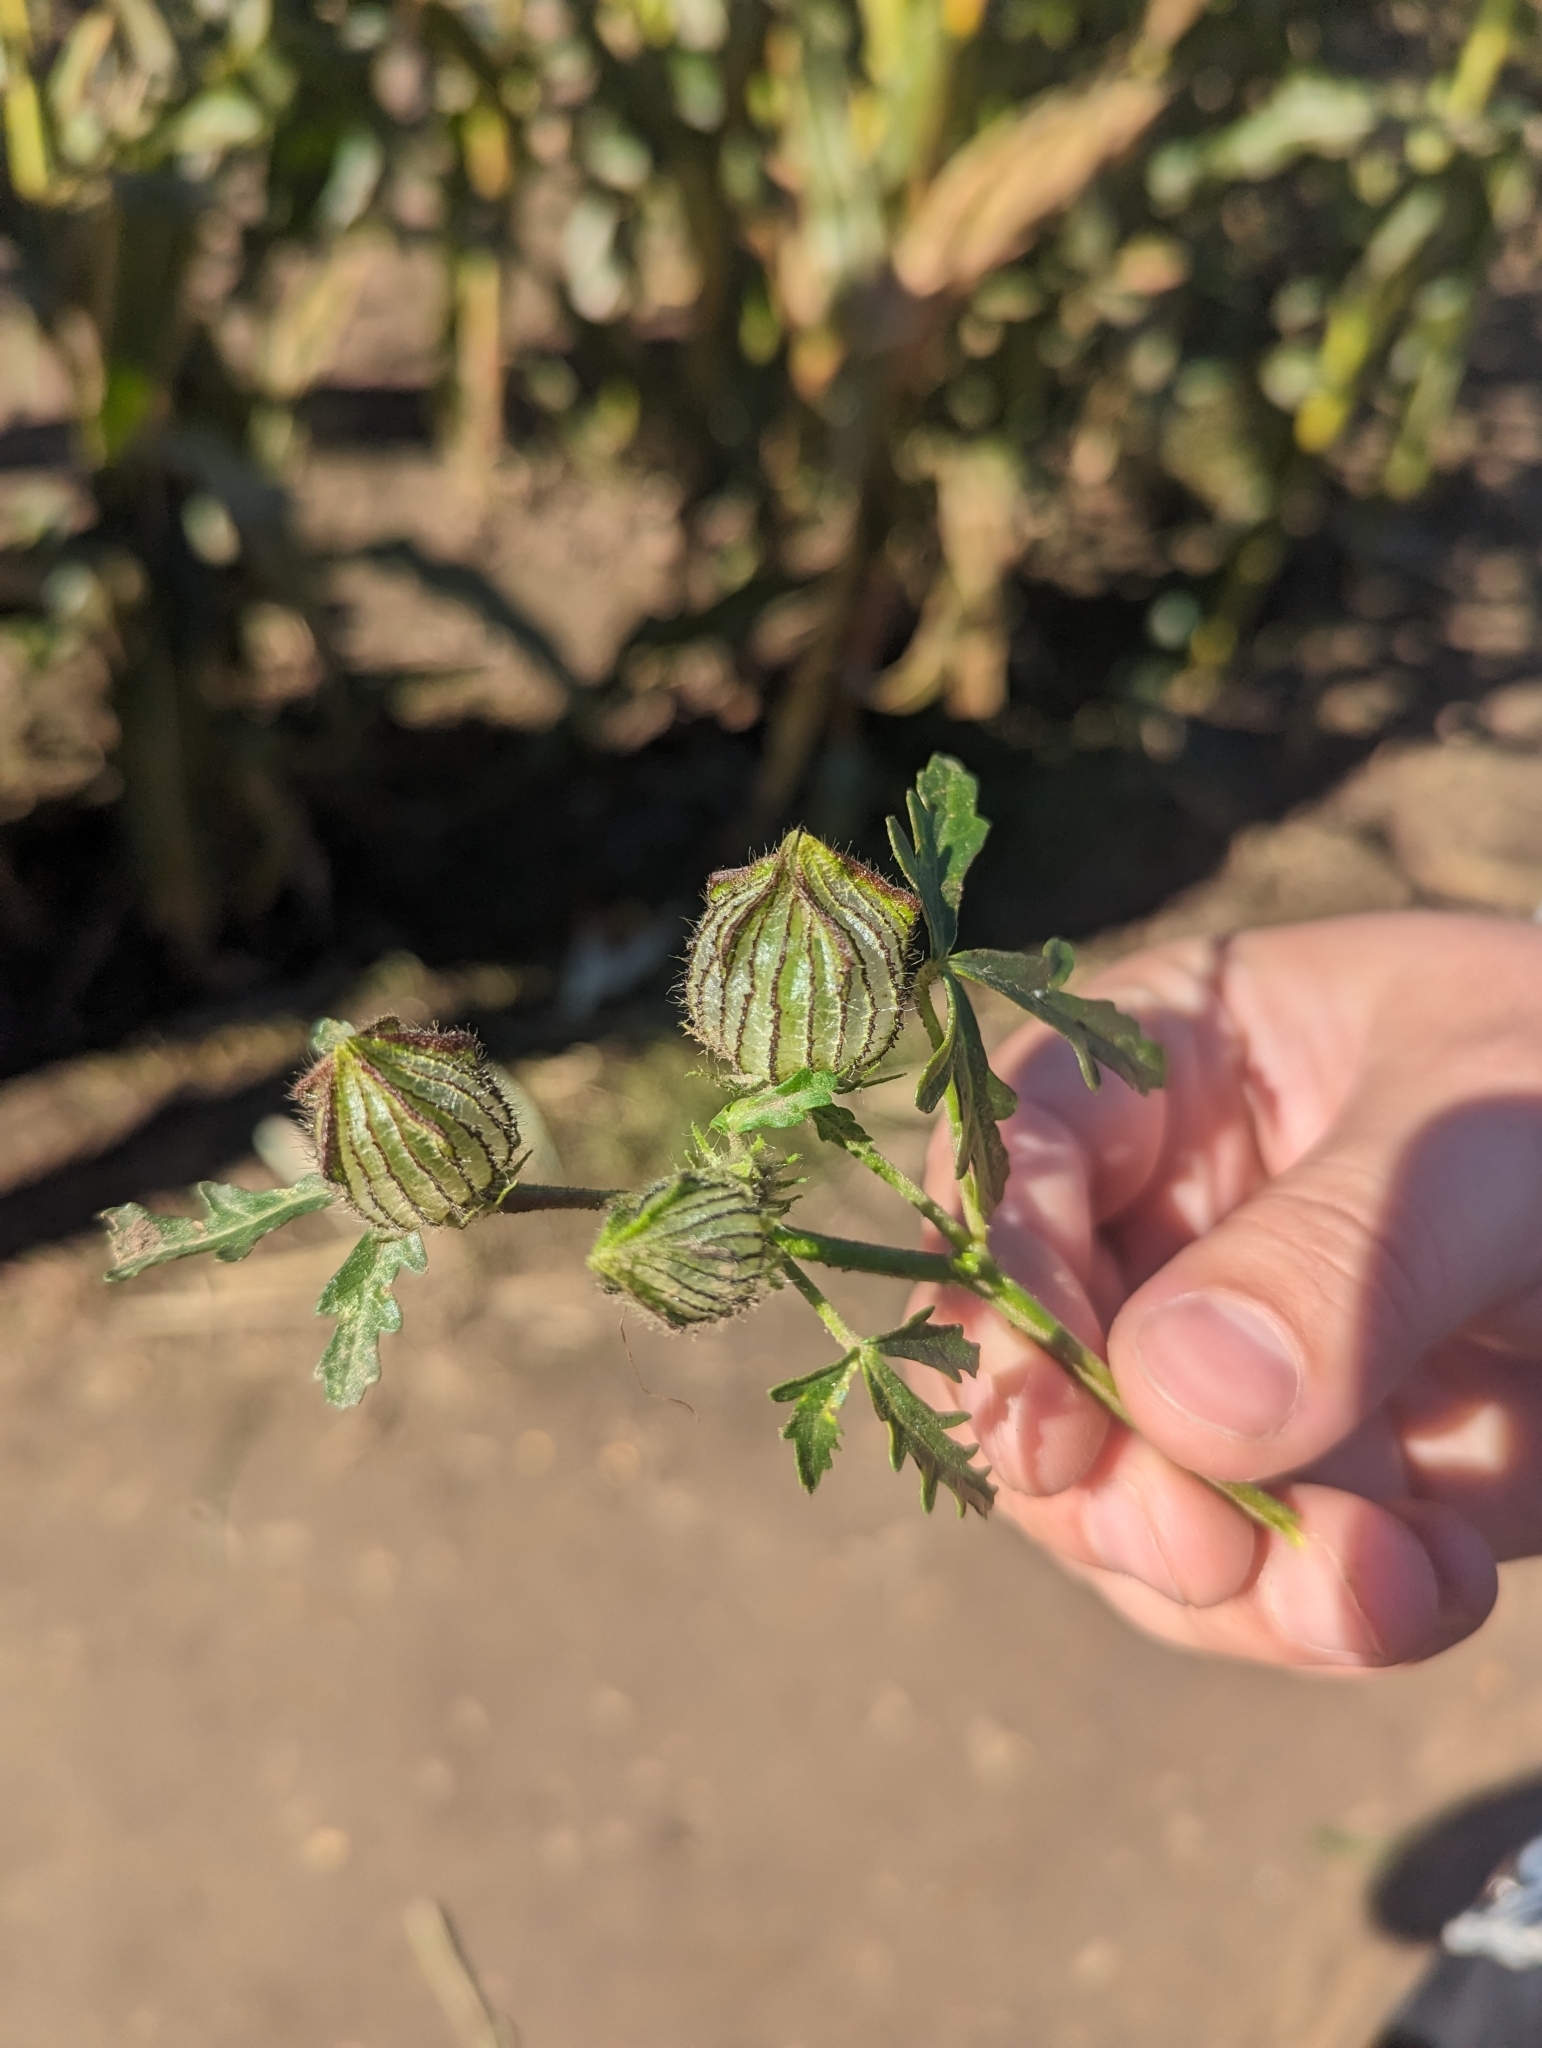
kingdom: Plantae
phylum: Tracheophyta
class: Magnoliopsida
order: Malvales
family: Malvaceae
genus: Hibiscus
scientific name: Hibiscus trionum
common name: Bladder ketmia
